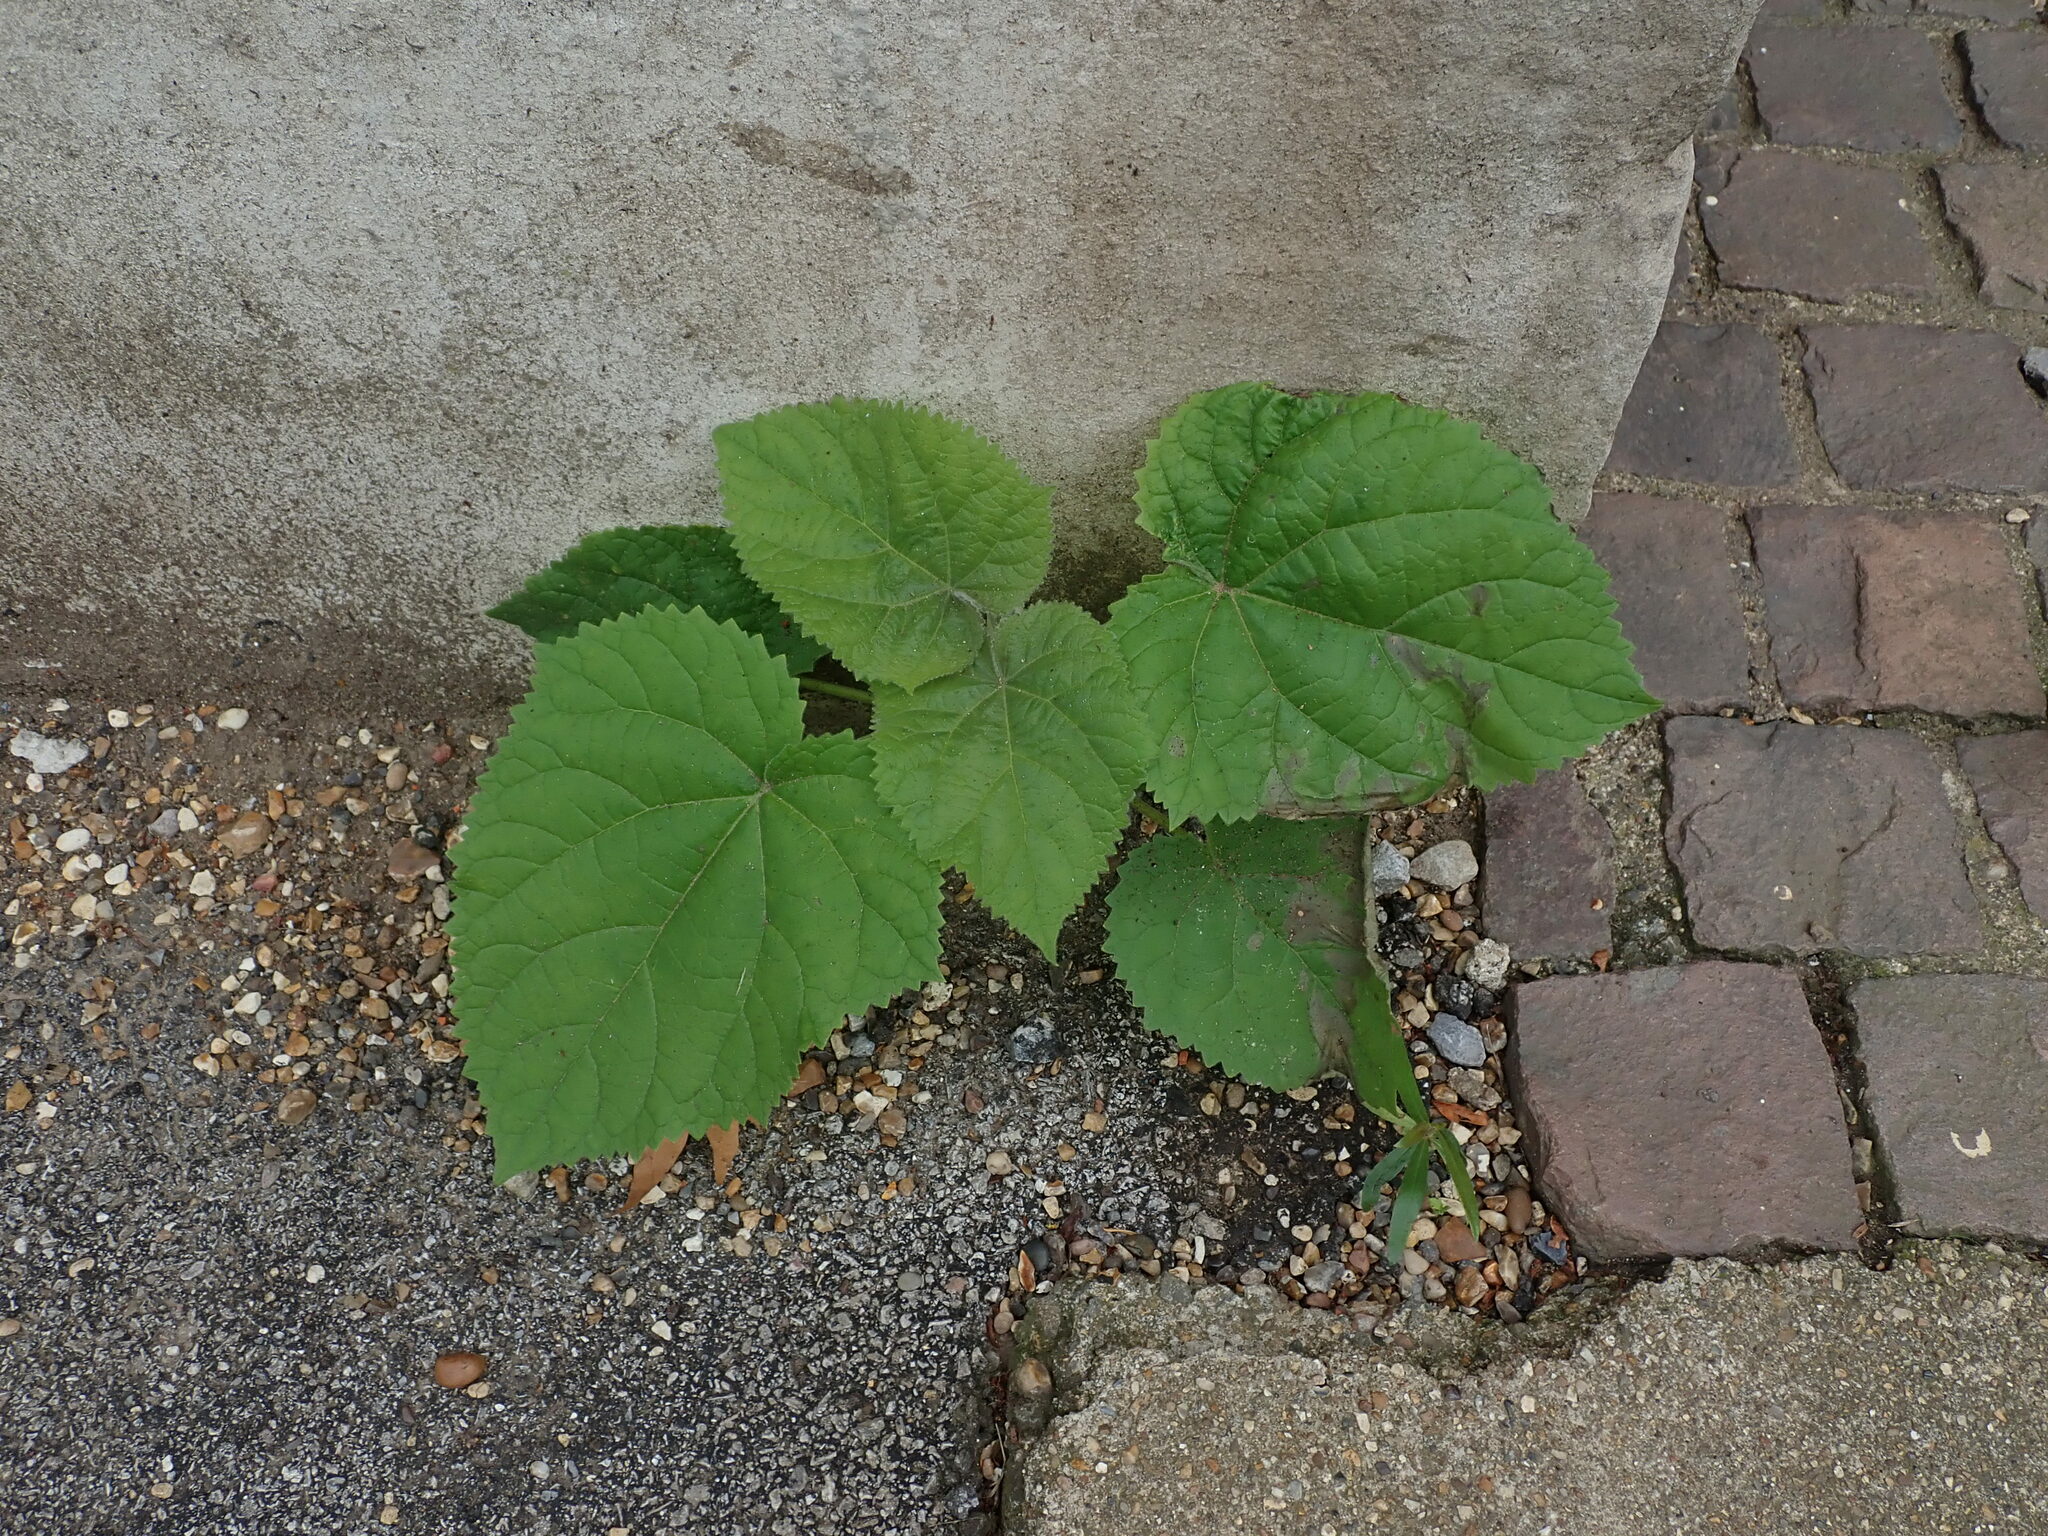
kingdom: Plantae
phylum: Tracheophyta
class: Magnoliopsida
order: Lamiales
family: Paulowniaceae
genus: Paulownia
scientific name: Paulownia tomentosa
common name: Foxglove-tree
